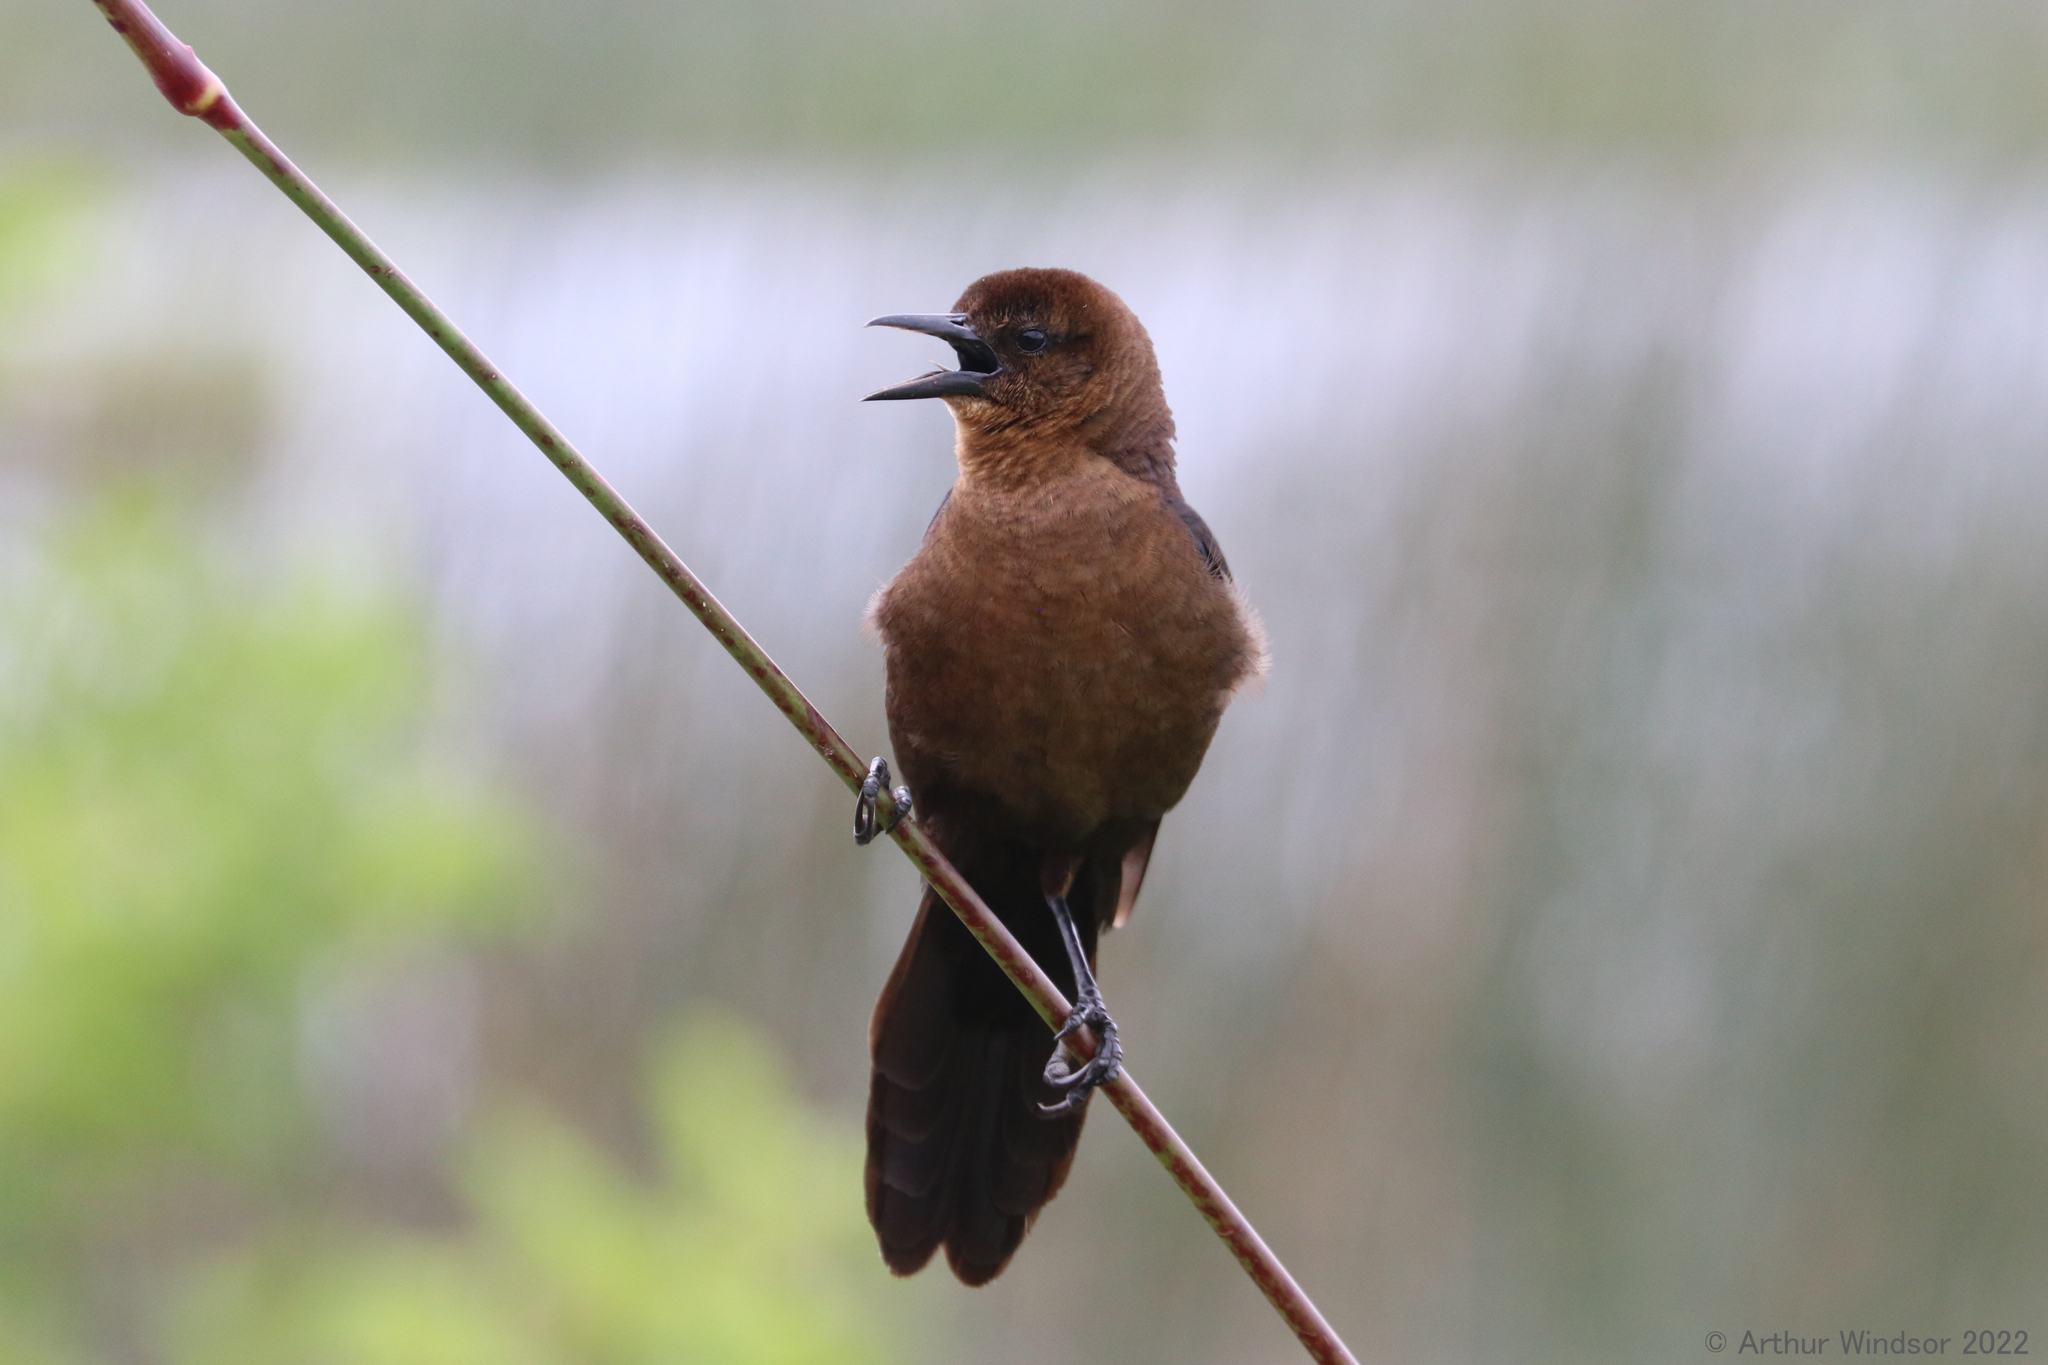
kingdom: Animalia
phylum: Chordata
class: Aves
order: Passeriformes
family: Icteridae
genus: Quiscalus
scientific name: Quiscalus major
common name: Boat-tailed grackle
